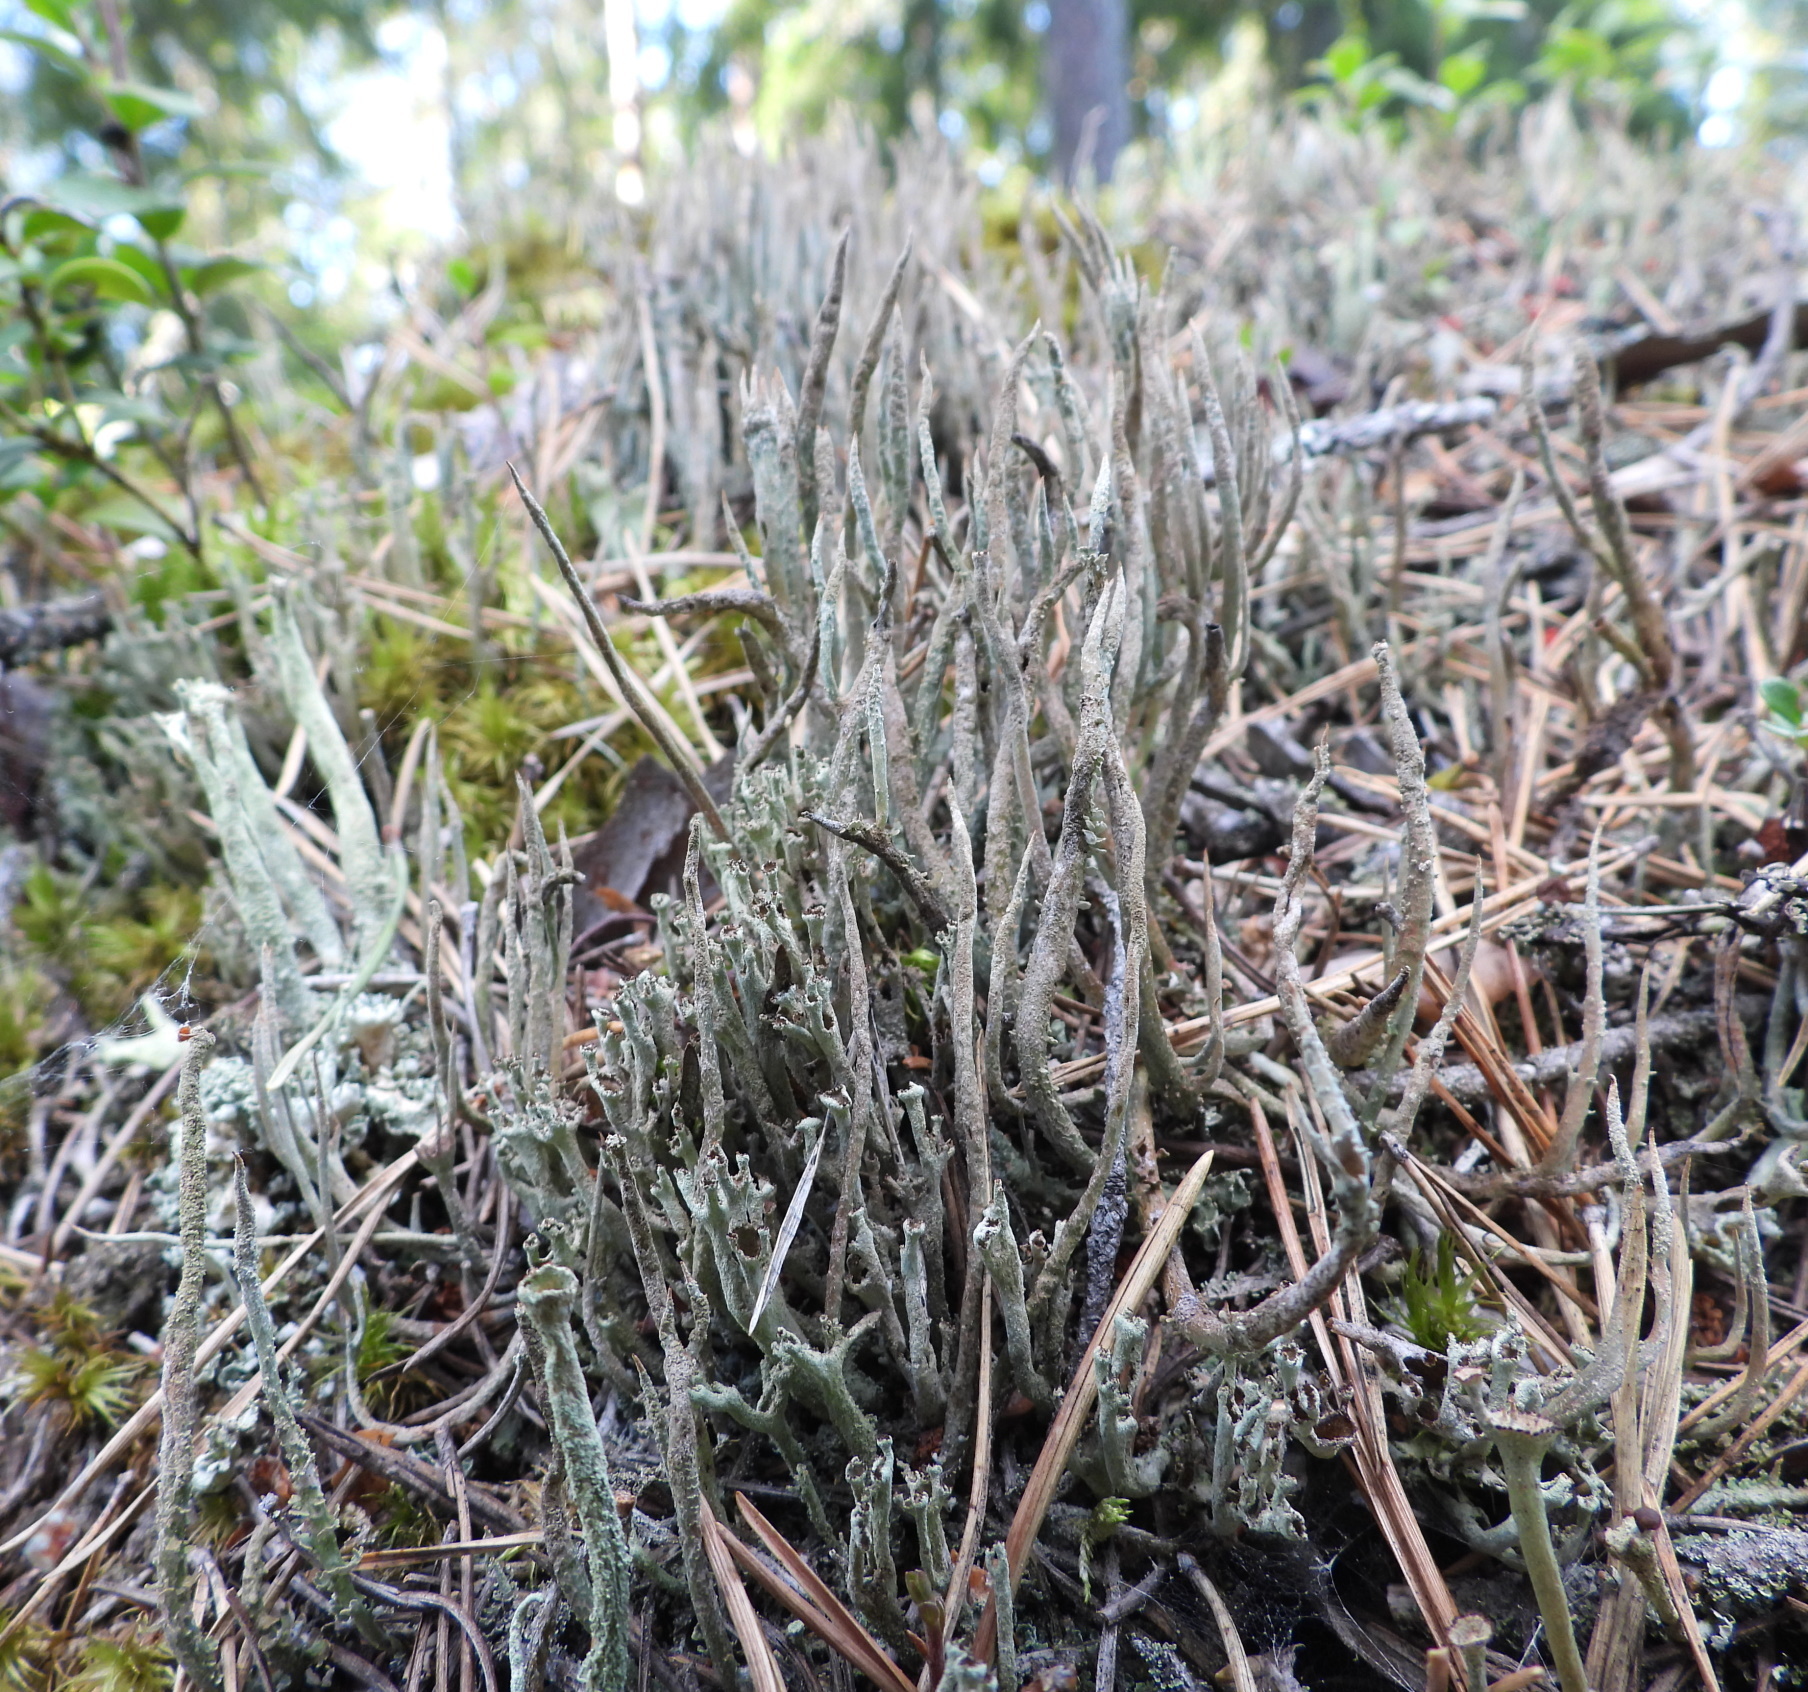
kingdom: Fungi
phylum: Ascomycota
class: Lecanoromycetes
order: Lecanorales
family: Cladoniaceae
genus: Cladonia
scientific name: Cladonia cornuta
